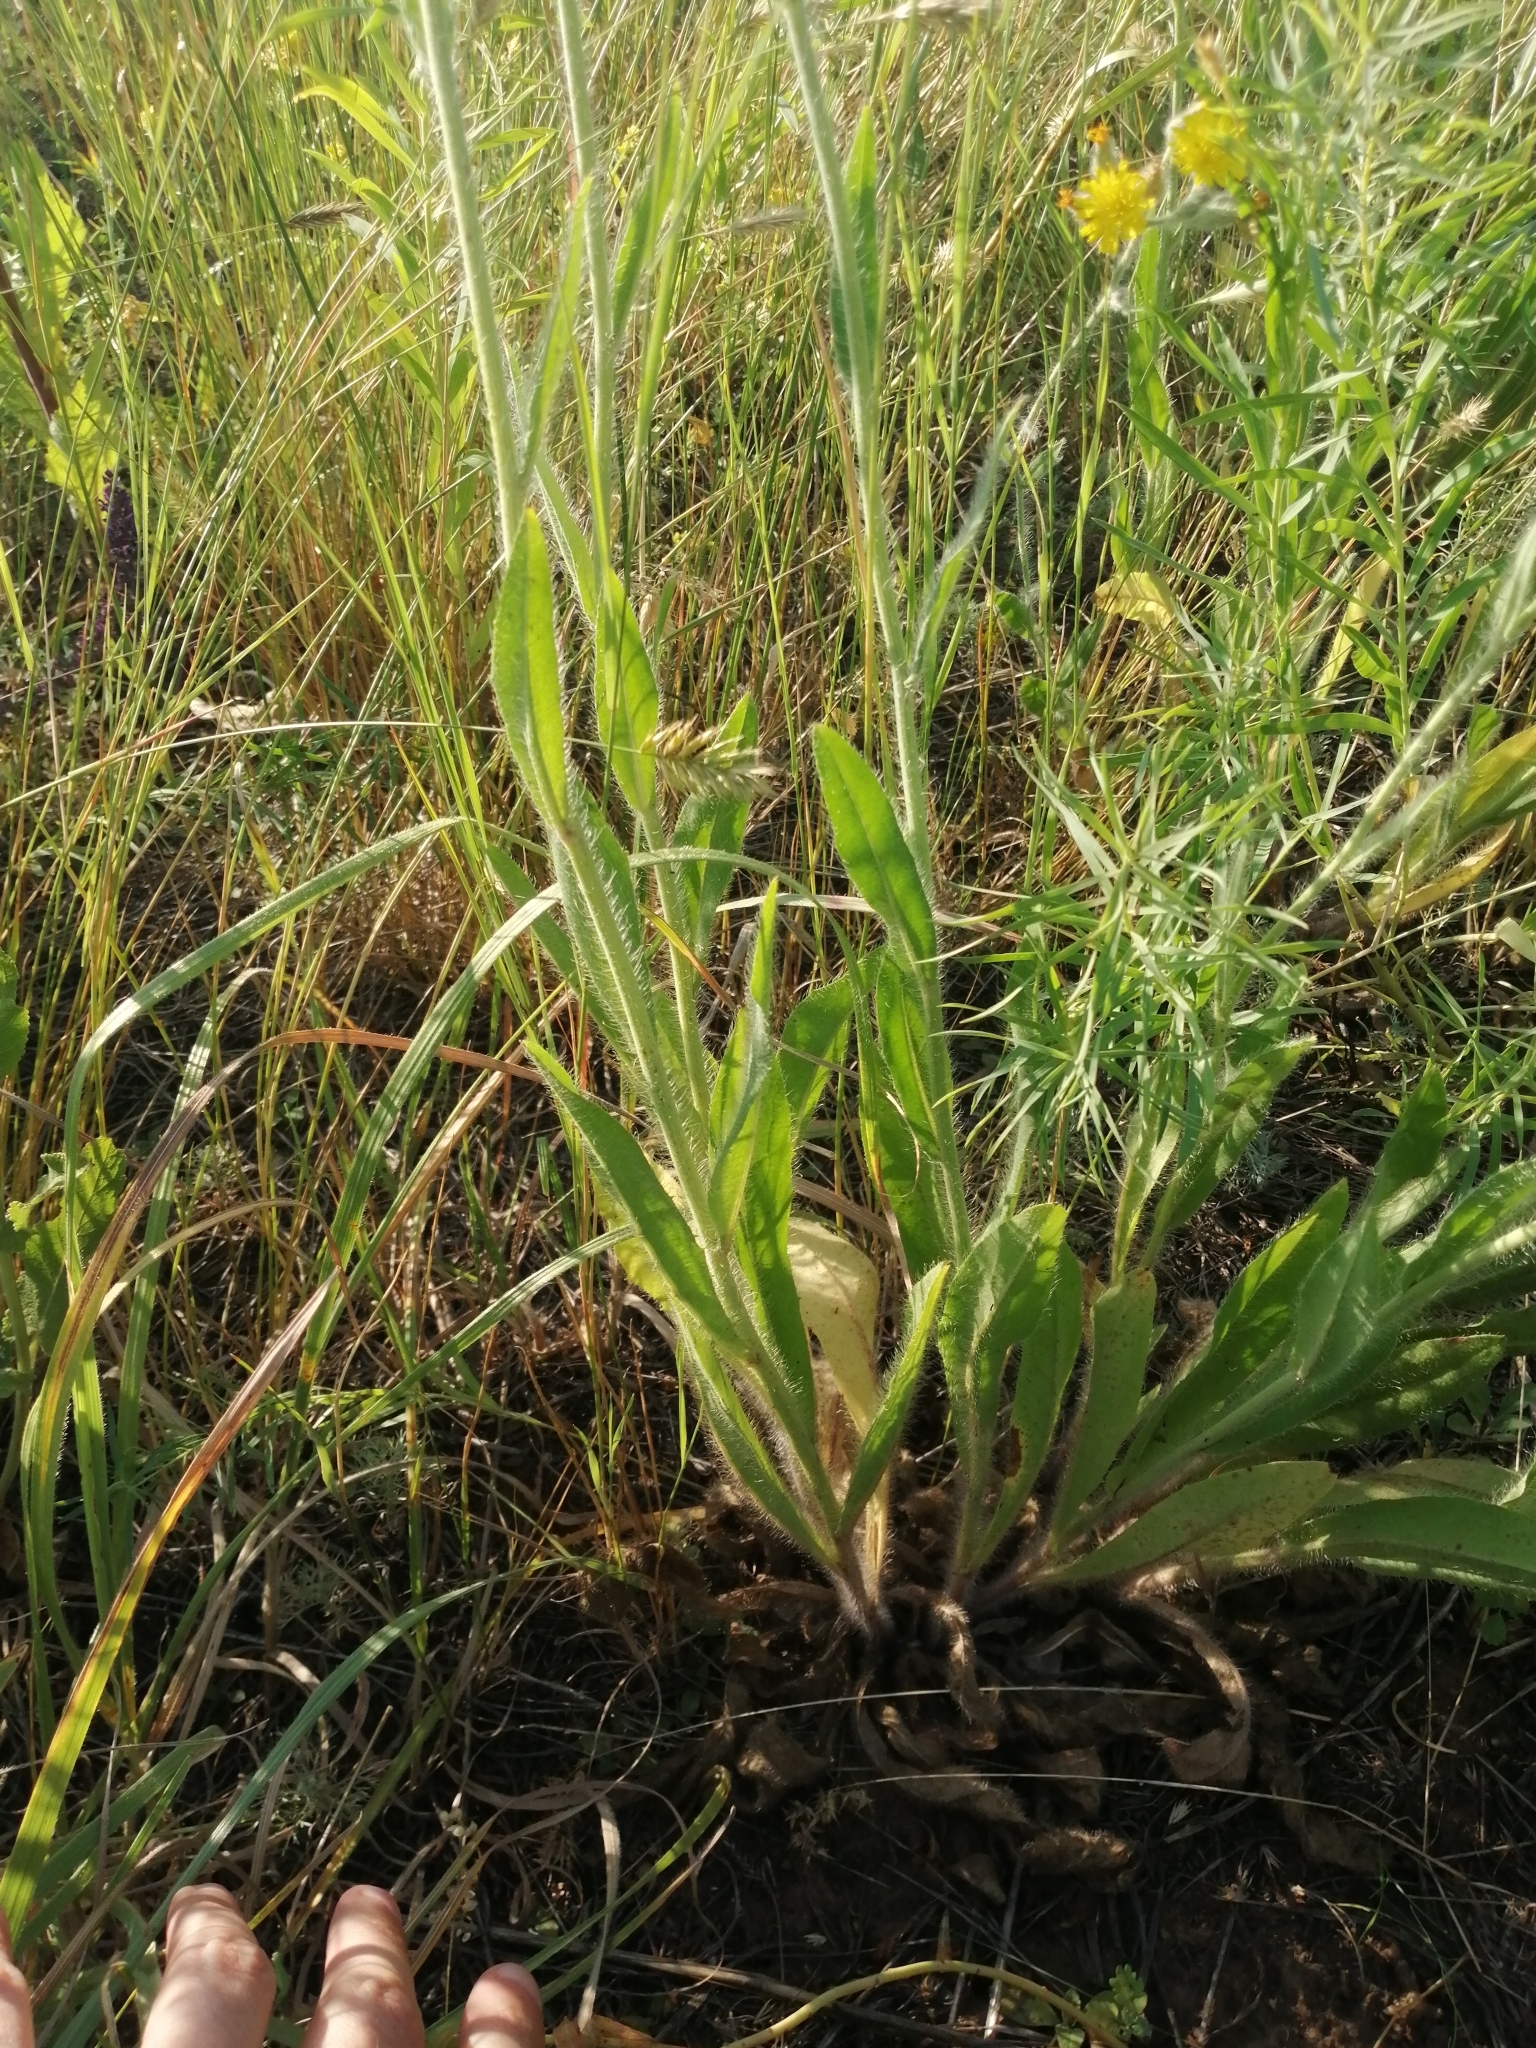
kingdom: Plantae
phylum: Tracheophyta
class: Magnoliopsida
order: Asterales
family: Asteraceae
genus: Pilosella
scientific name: Pilosella echioides
